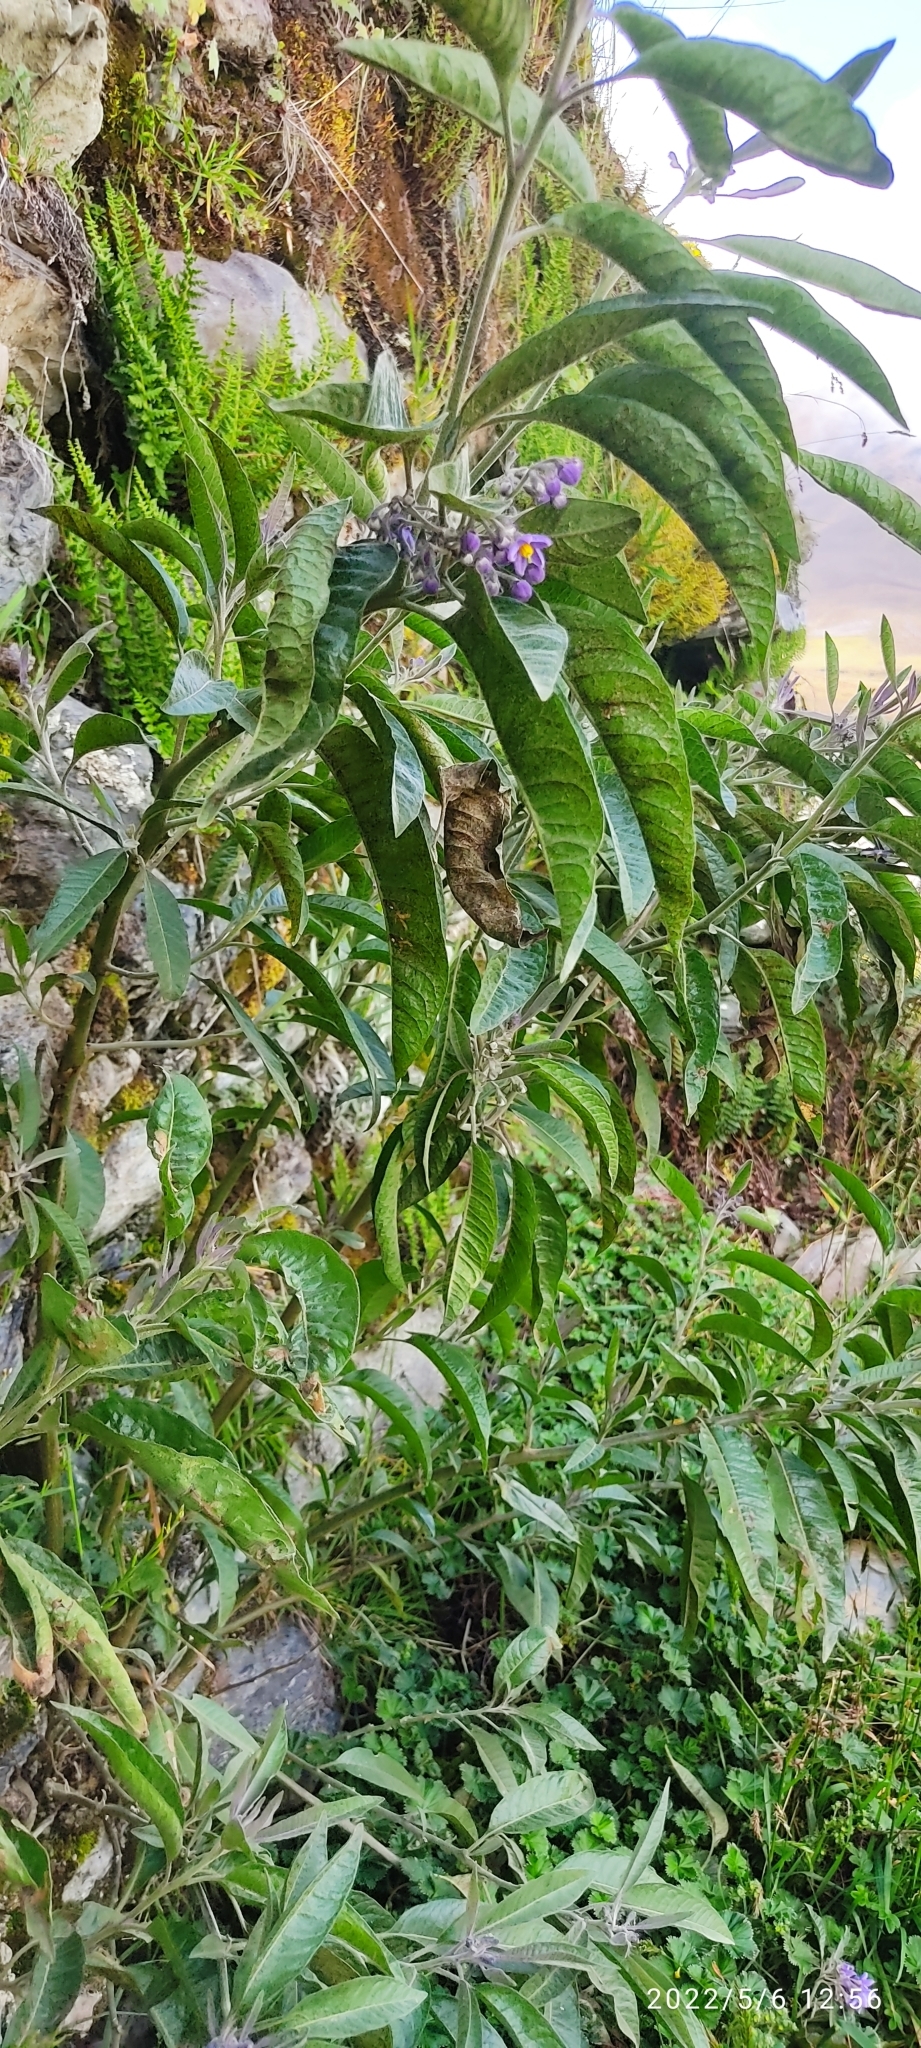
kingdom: Plantae
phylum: Tracheophyta
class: Magnoliopsida
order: Solanales
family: Solanaceae
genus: Solanum
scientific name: Solanum nitidum
